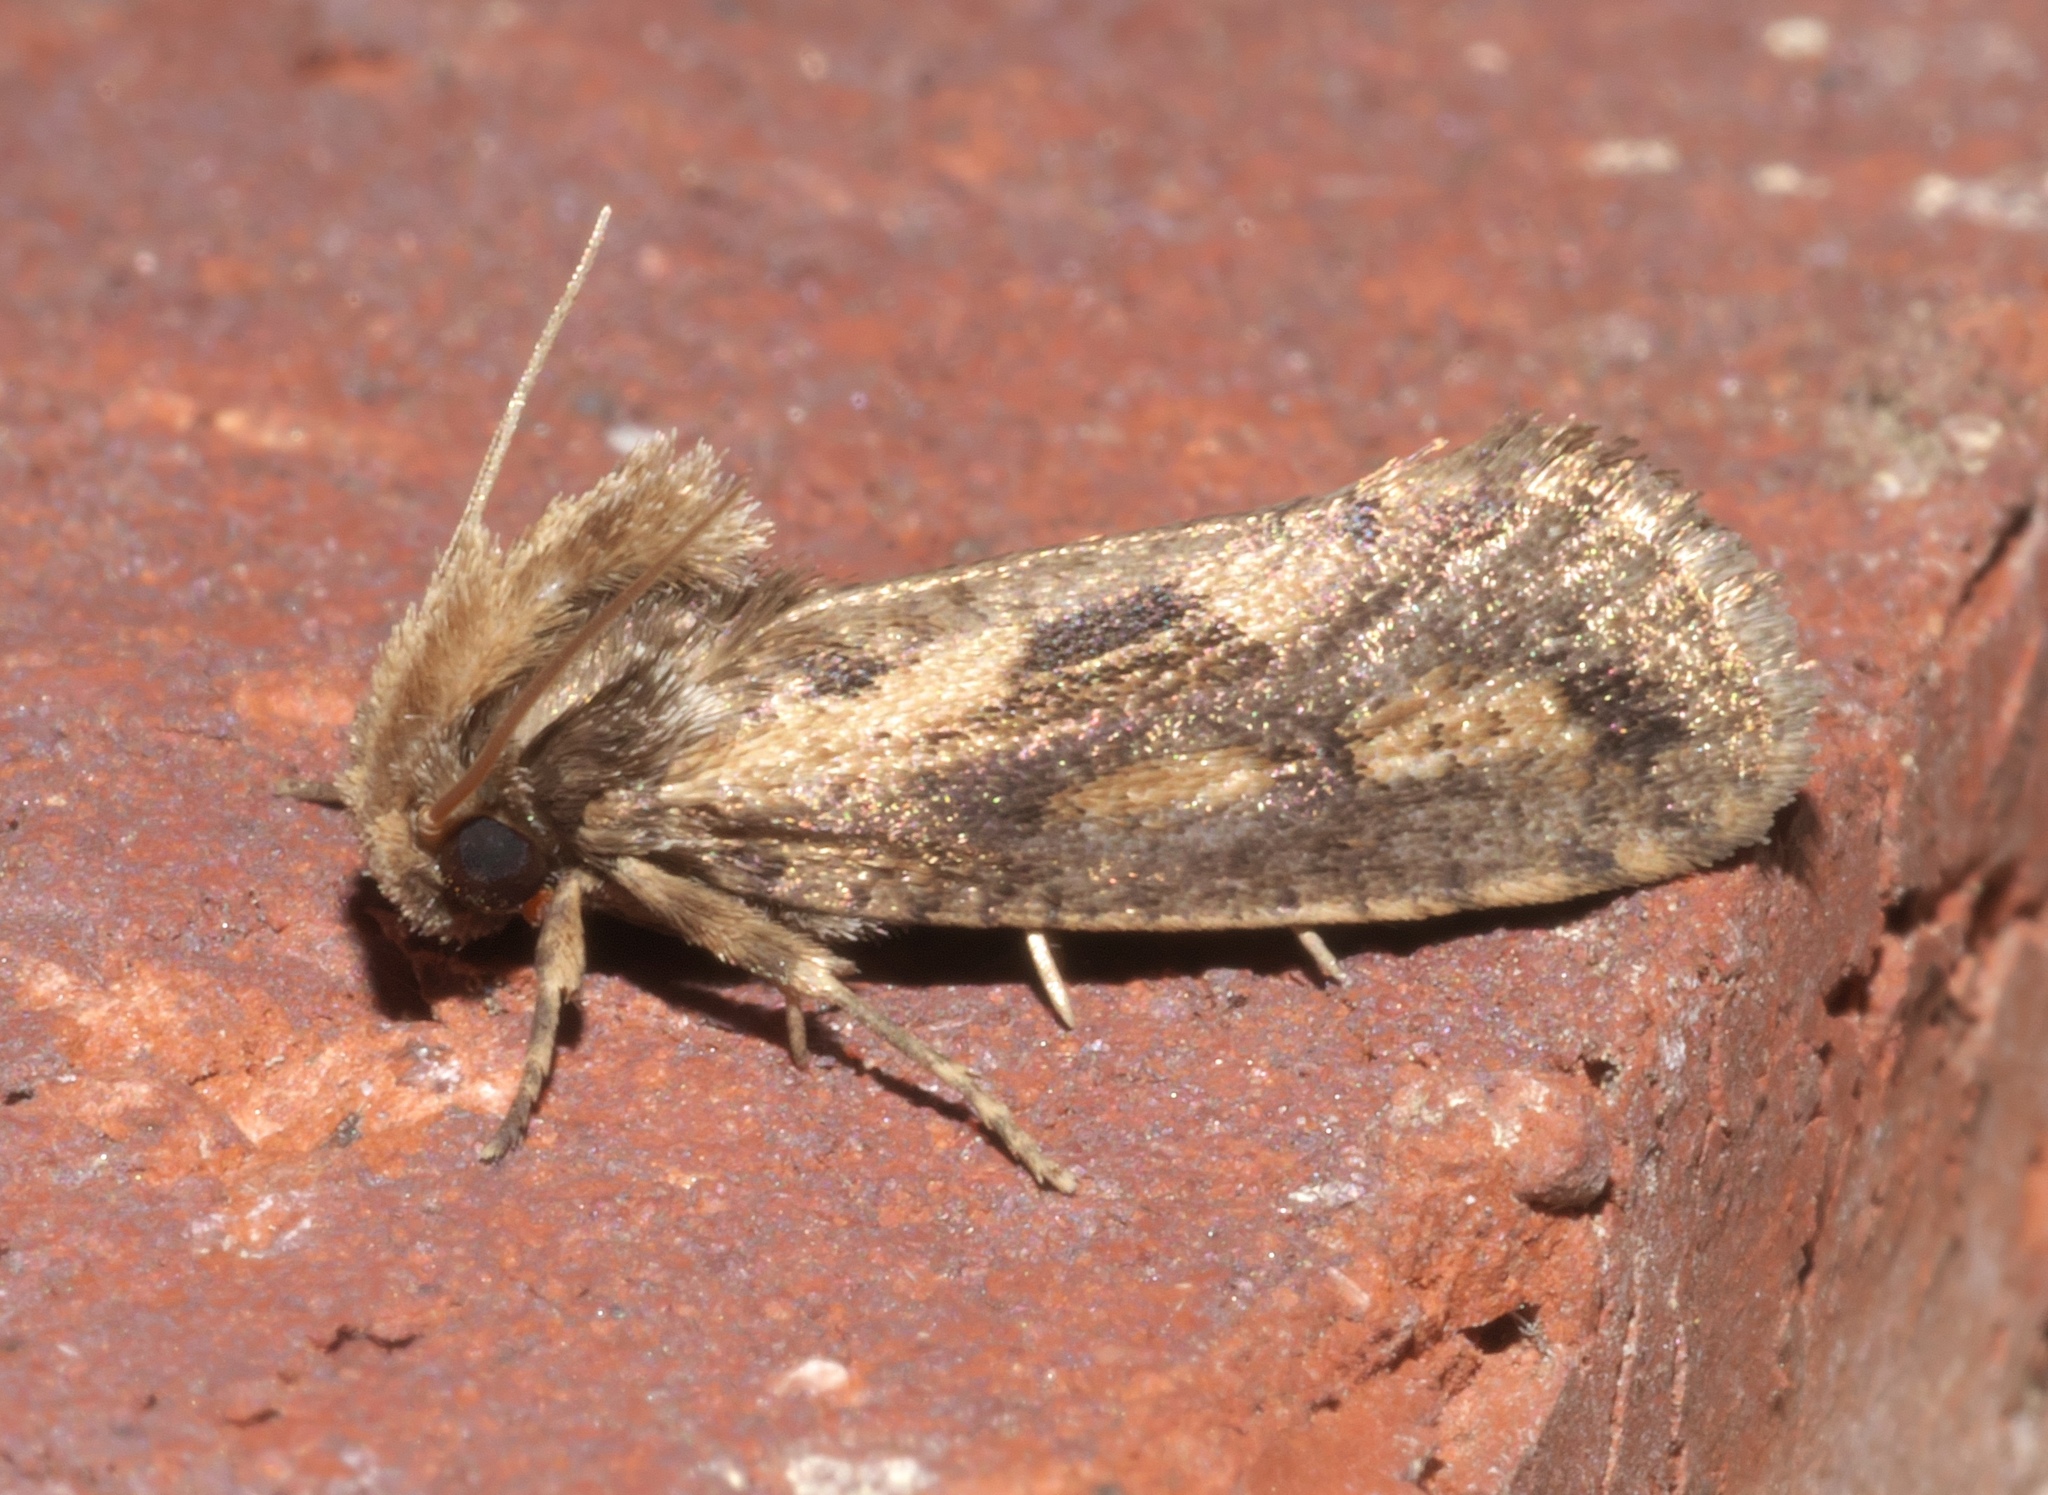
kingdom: Animalia
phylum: Arthropoda
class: Insecta
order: Lepidoptera
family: Tineidae
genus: Acrolophus
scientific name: Acrolophus popeanella
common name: Clemens' grass tubeworm moth
